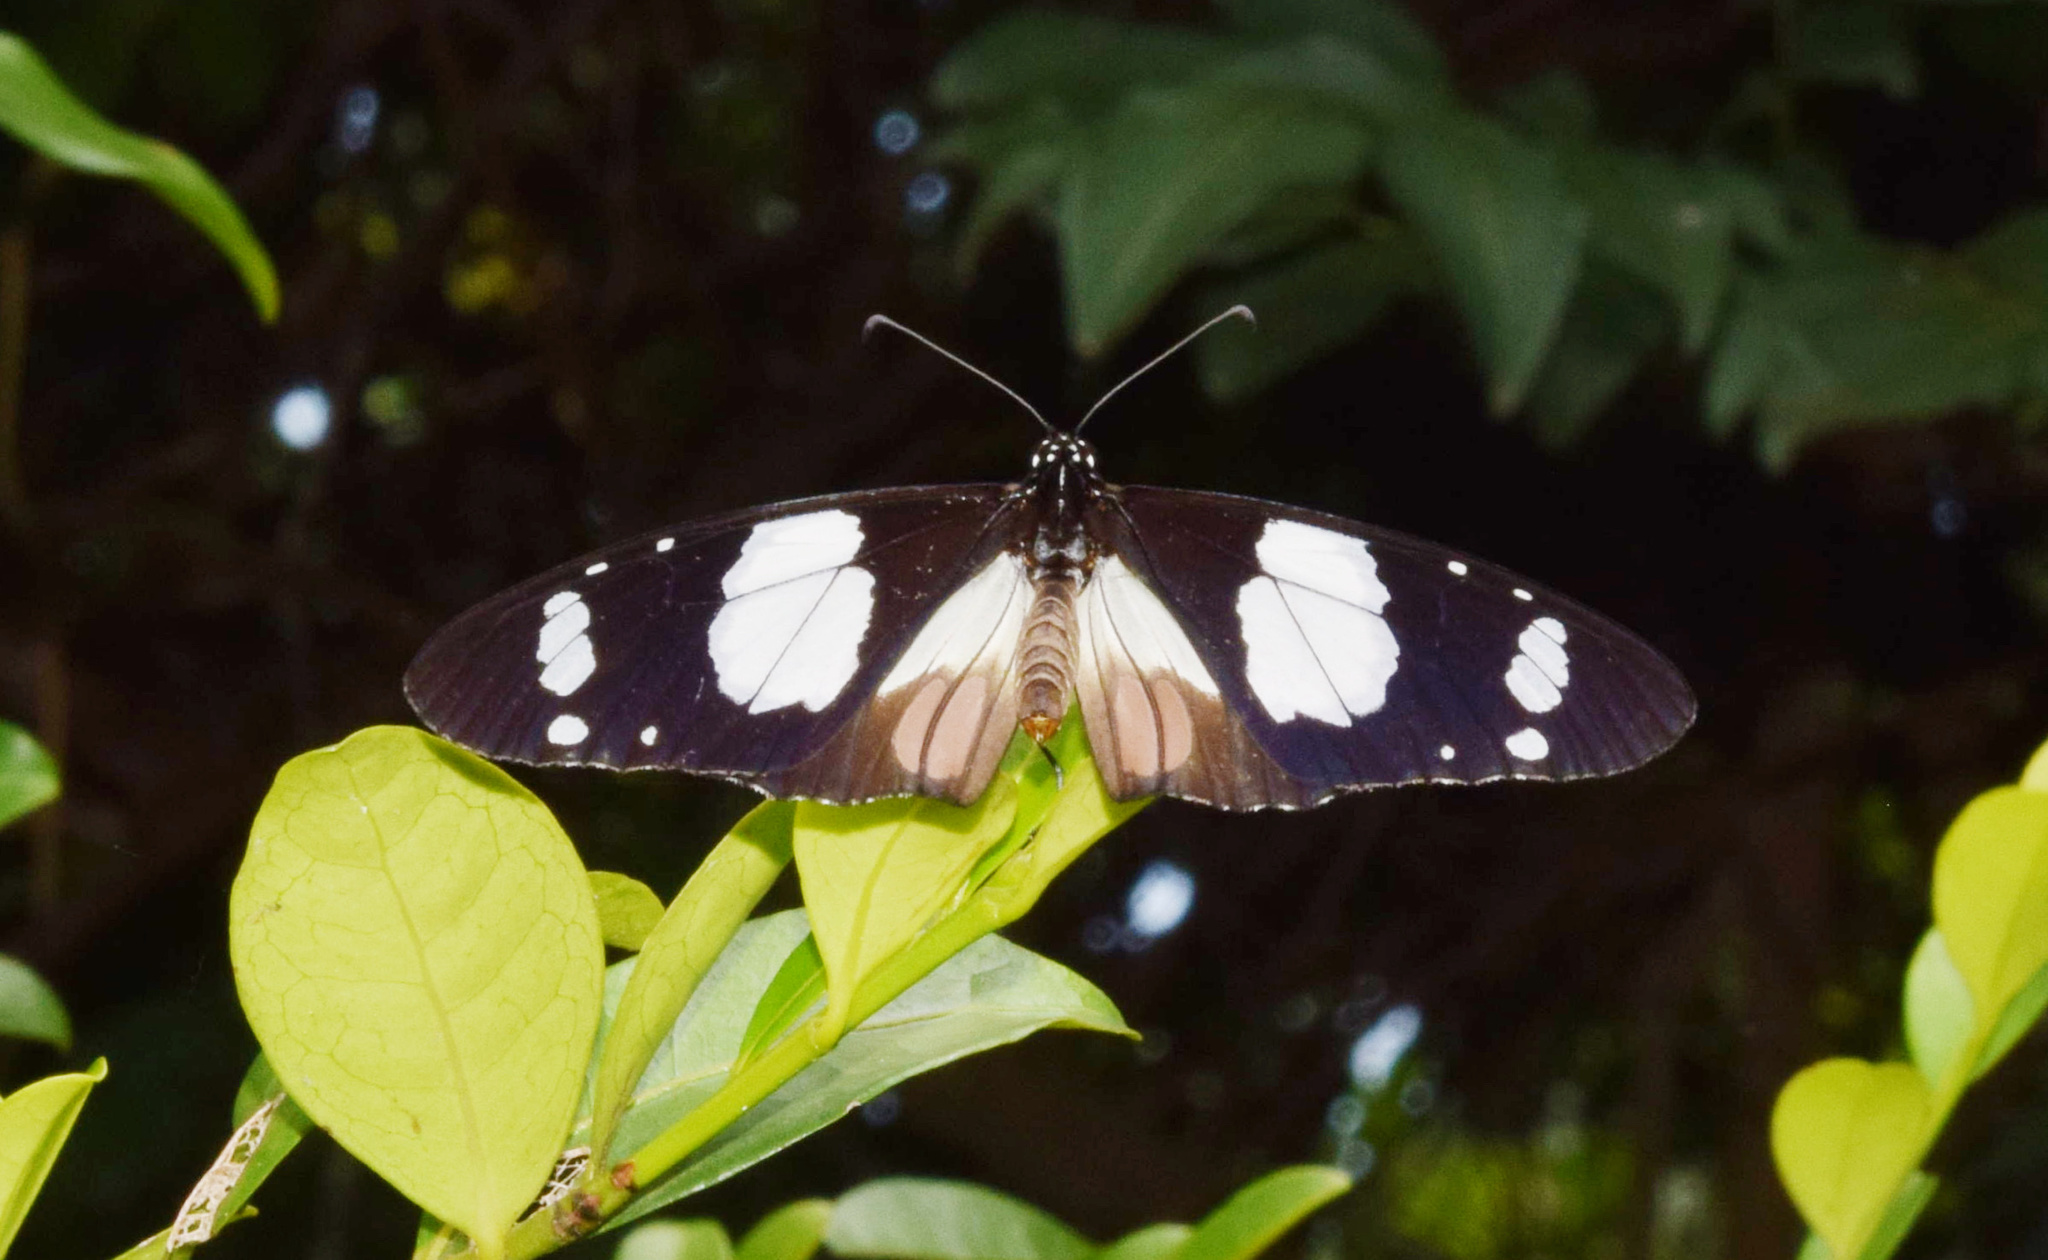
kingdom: Animalia
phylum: Arthropoda
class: Insecta
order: Lepidoptera
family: Nymphalidae
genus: Amauris
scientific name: Amauris ochlea
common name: Novice
